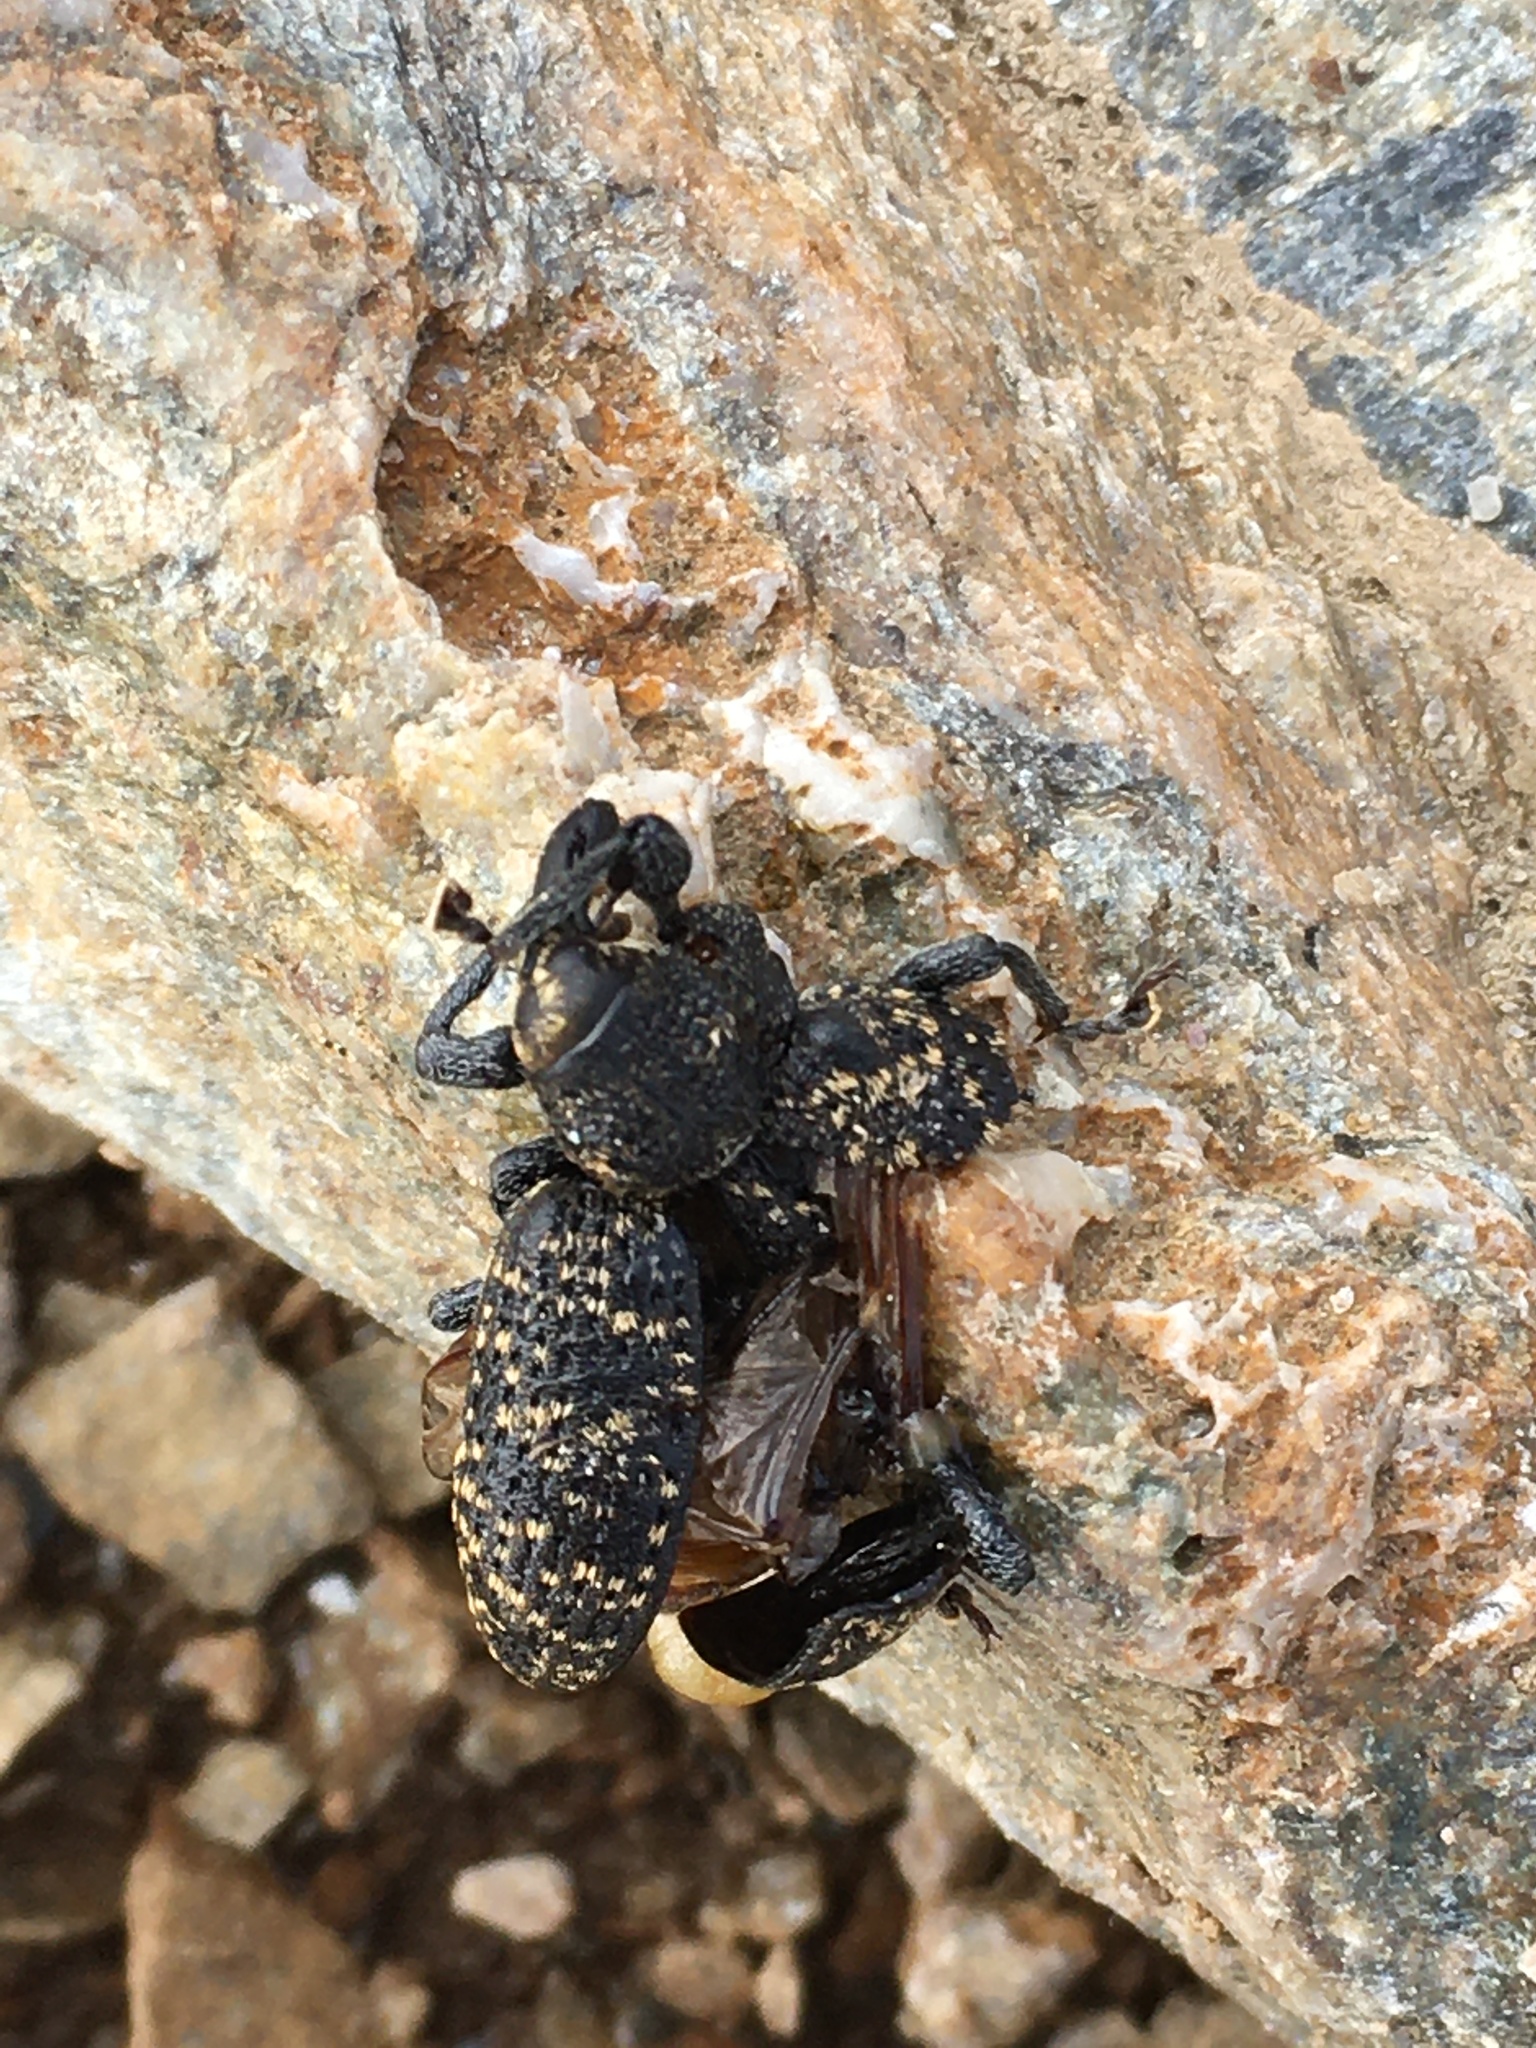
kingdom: Animalia
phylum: Arthropoda
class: Insecta
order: Coleoptera
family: Curculionidae
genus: Hylobius
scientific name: Hylobius excavatus
